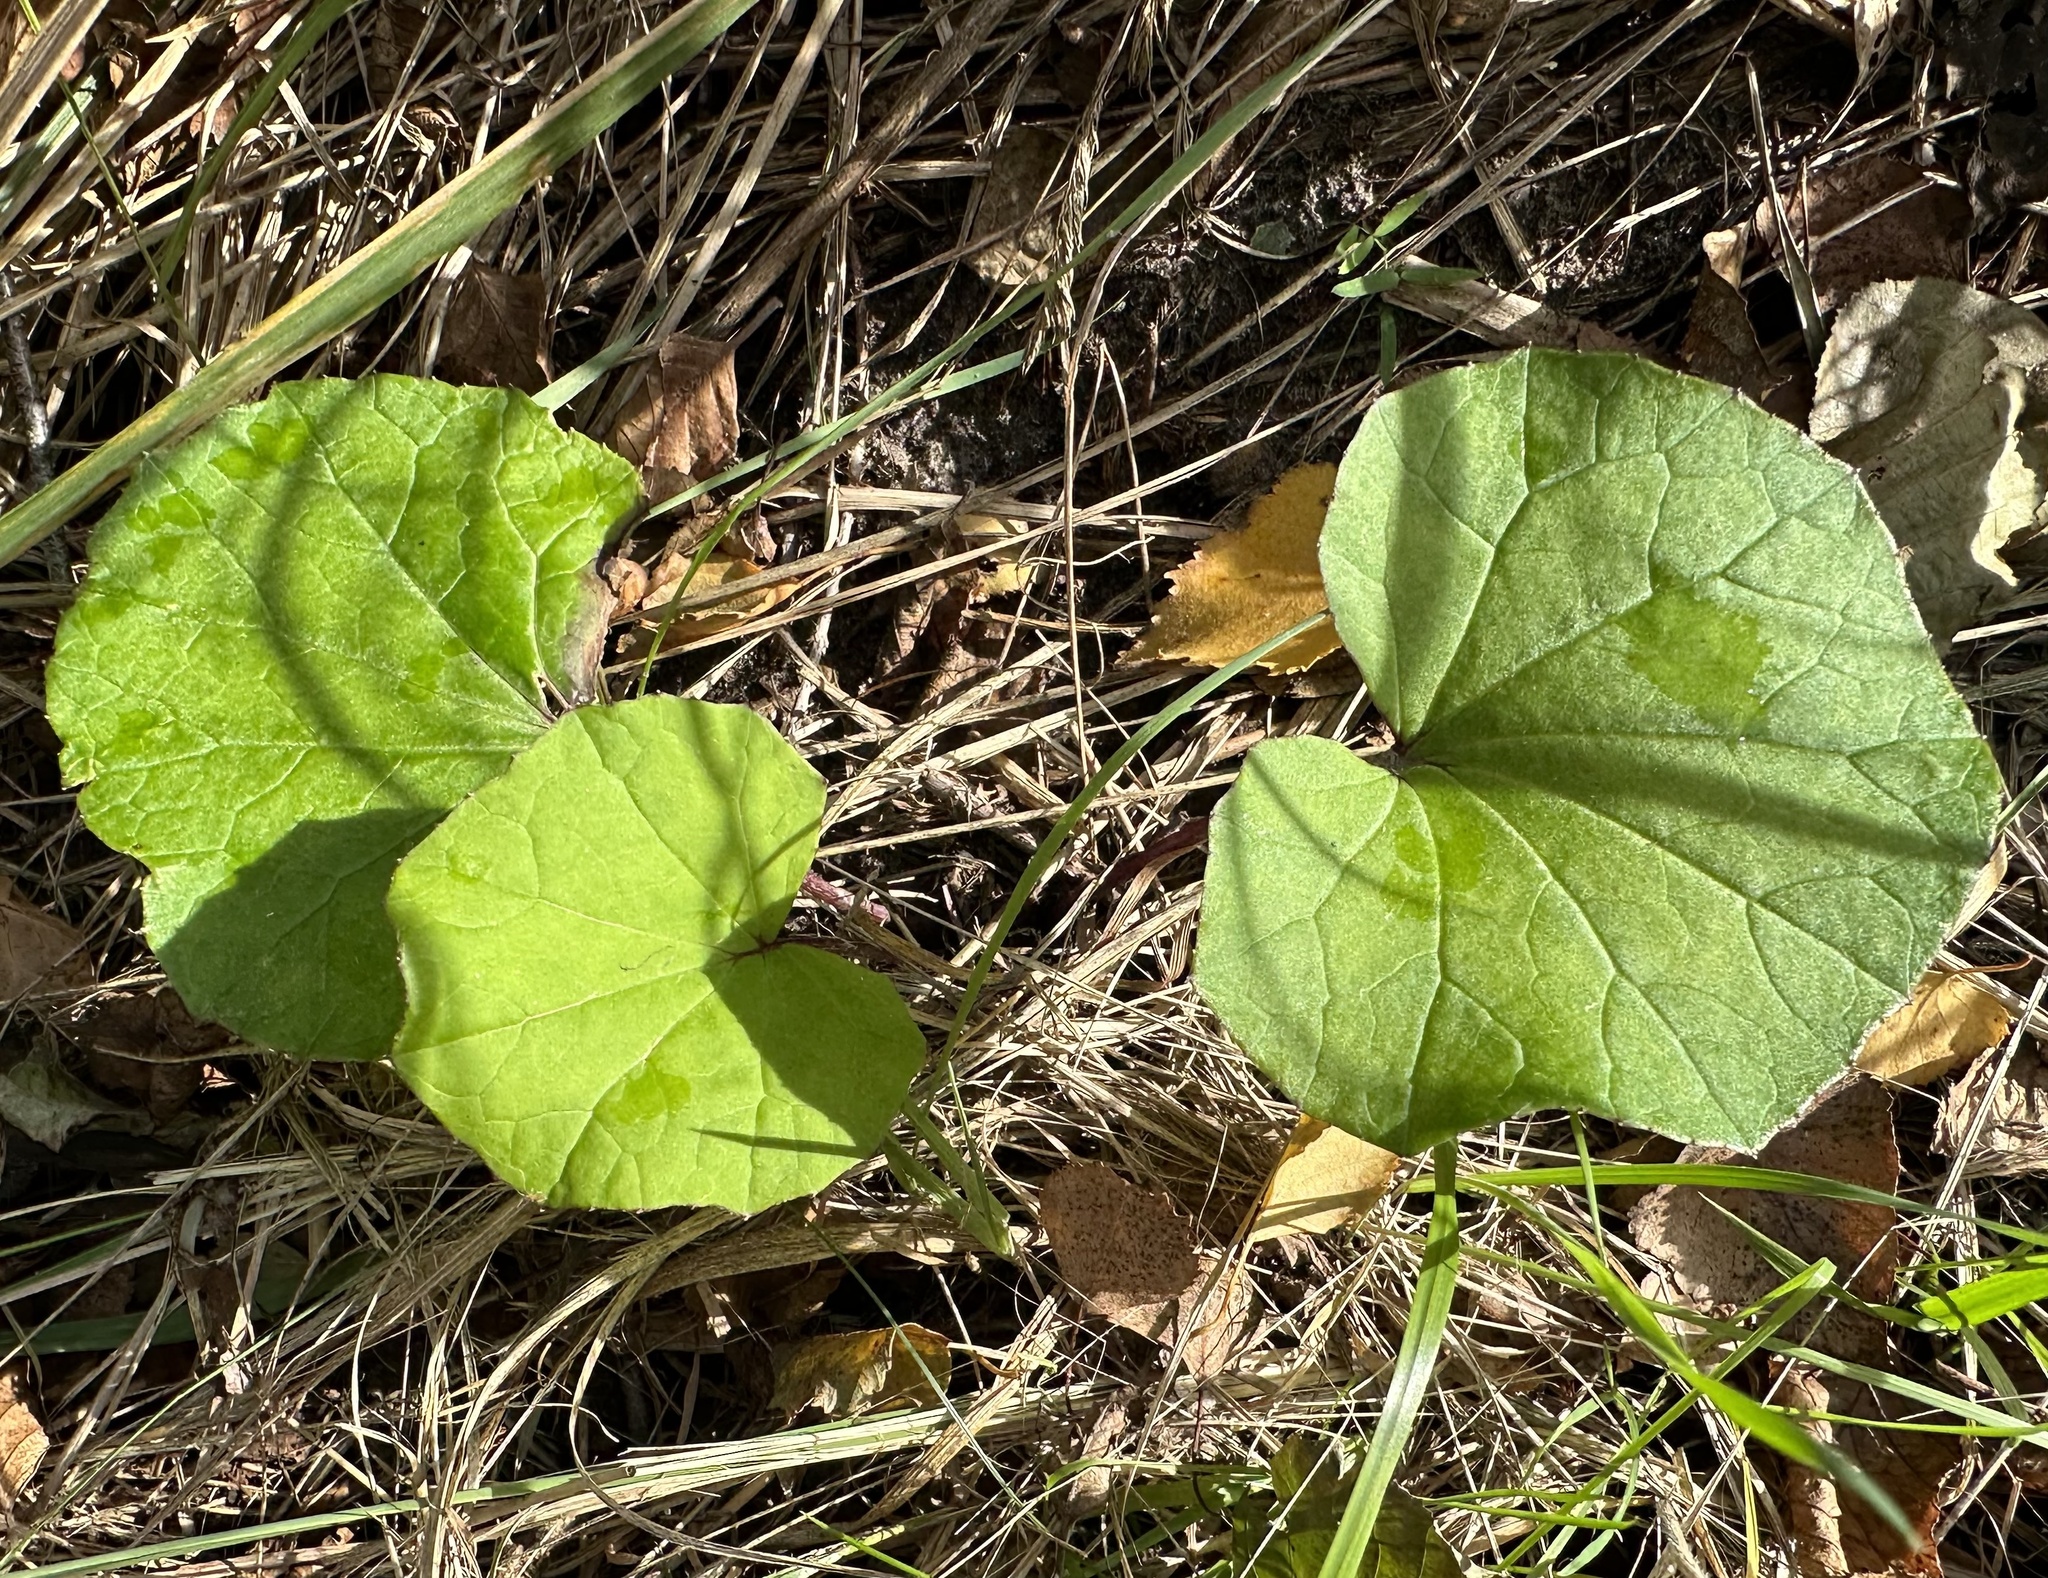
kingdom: Plantae
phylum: Tracheophyta
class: Magnoliopsida
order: Asterales
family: Asteraceae
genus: Tussilago
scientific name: Tussilago farfara
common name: Coltsfoot
